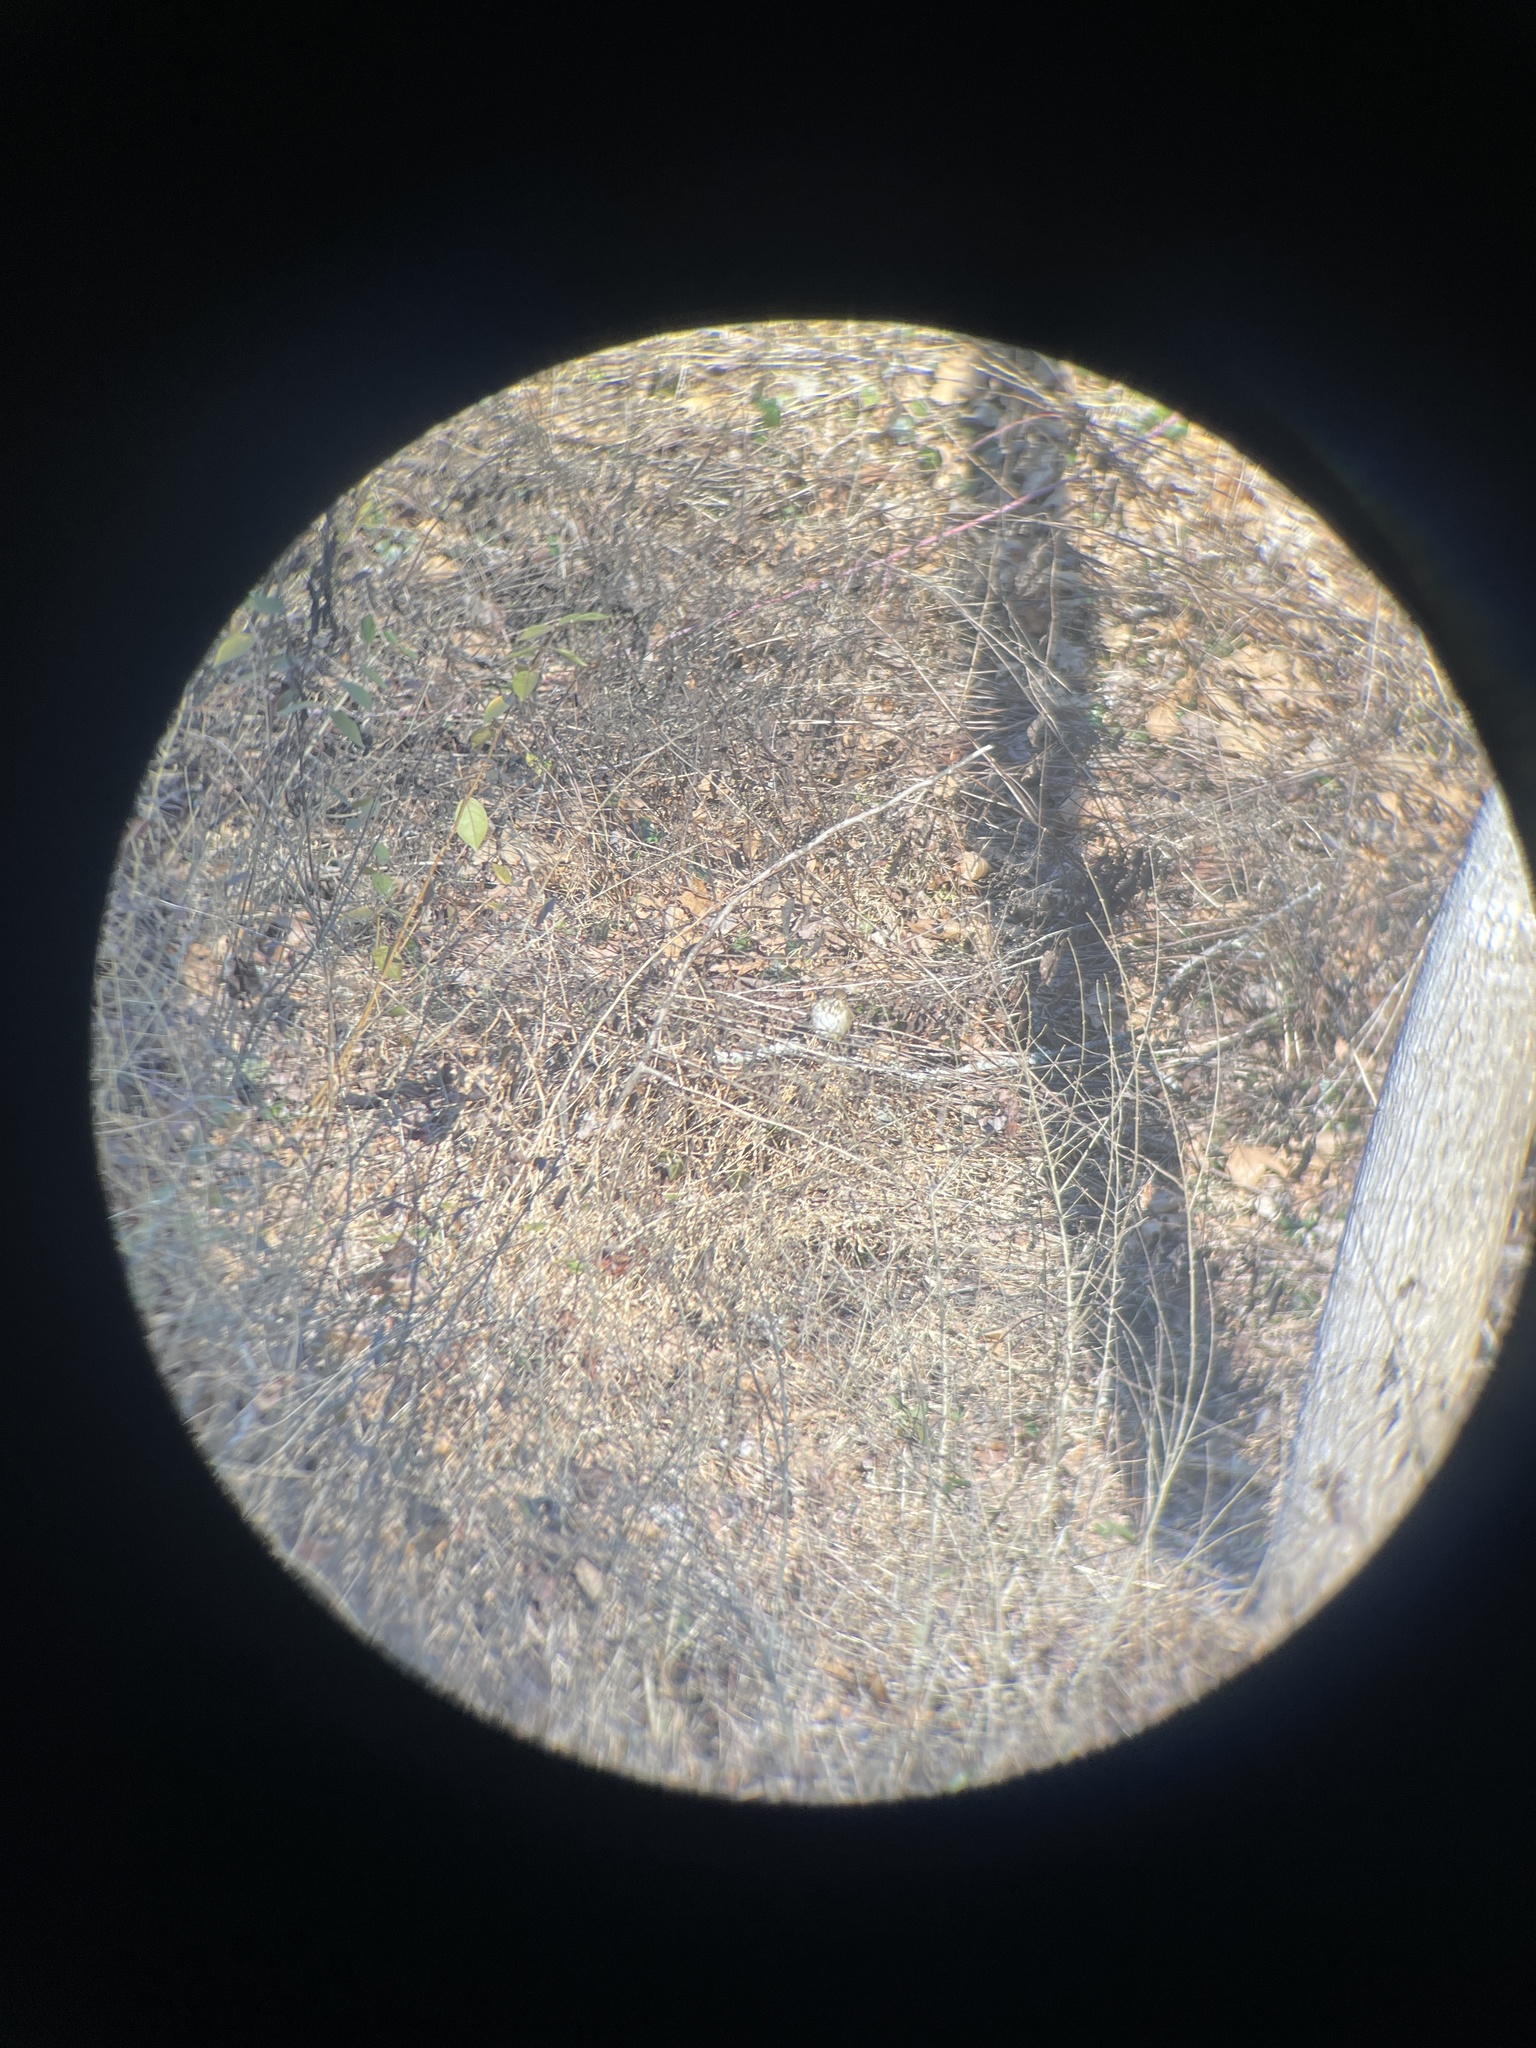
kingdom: Animalia
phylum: Chordata
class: Aves
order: Passeriformes
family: Turdidae
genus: Catharus
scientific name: Catharus guttatus
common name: Hermit thrush
